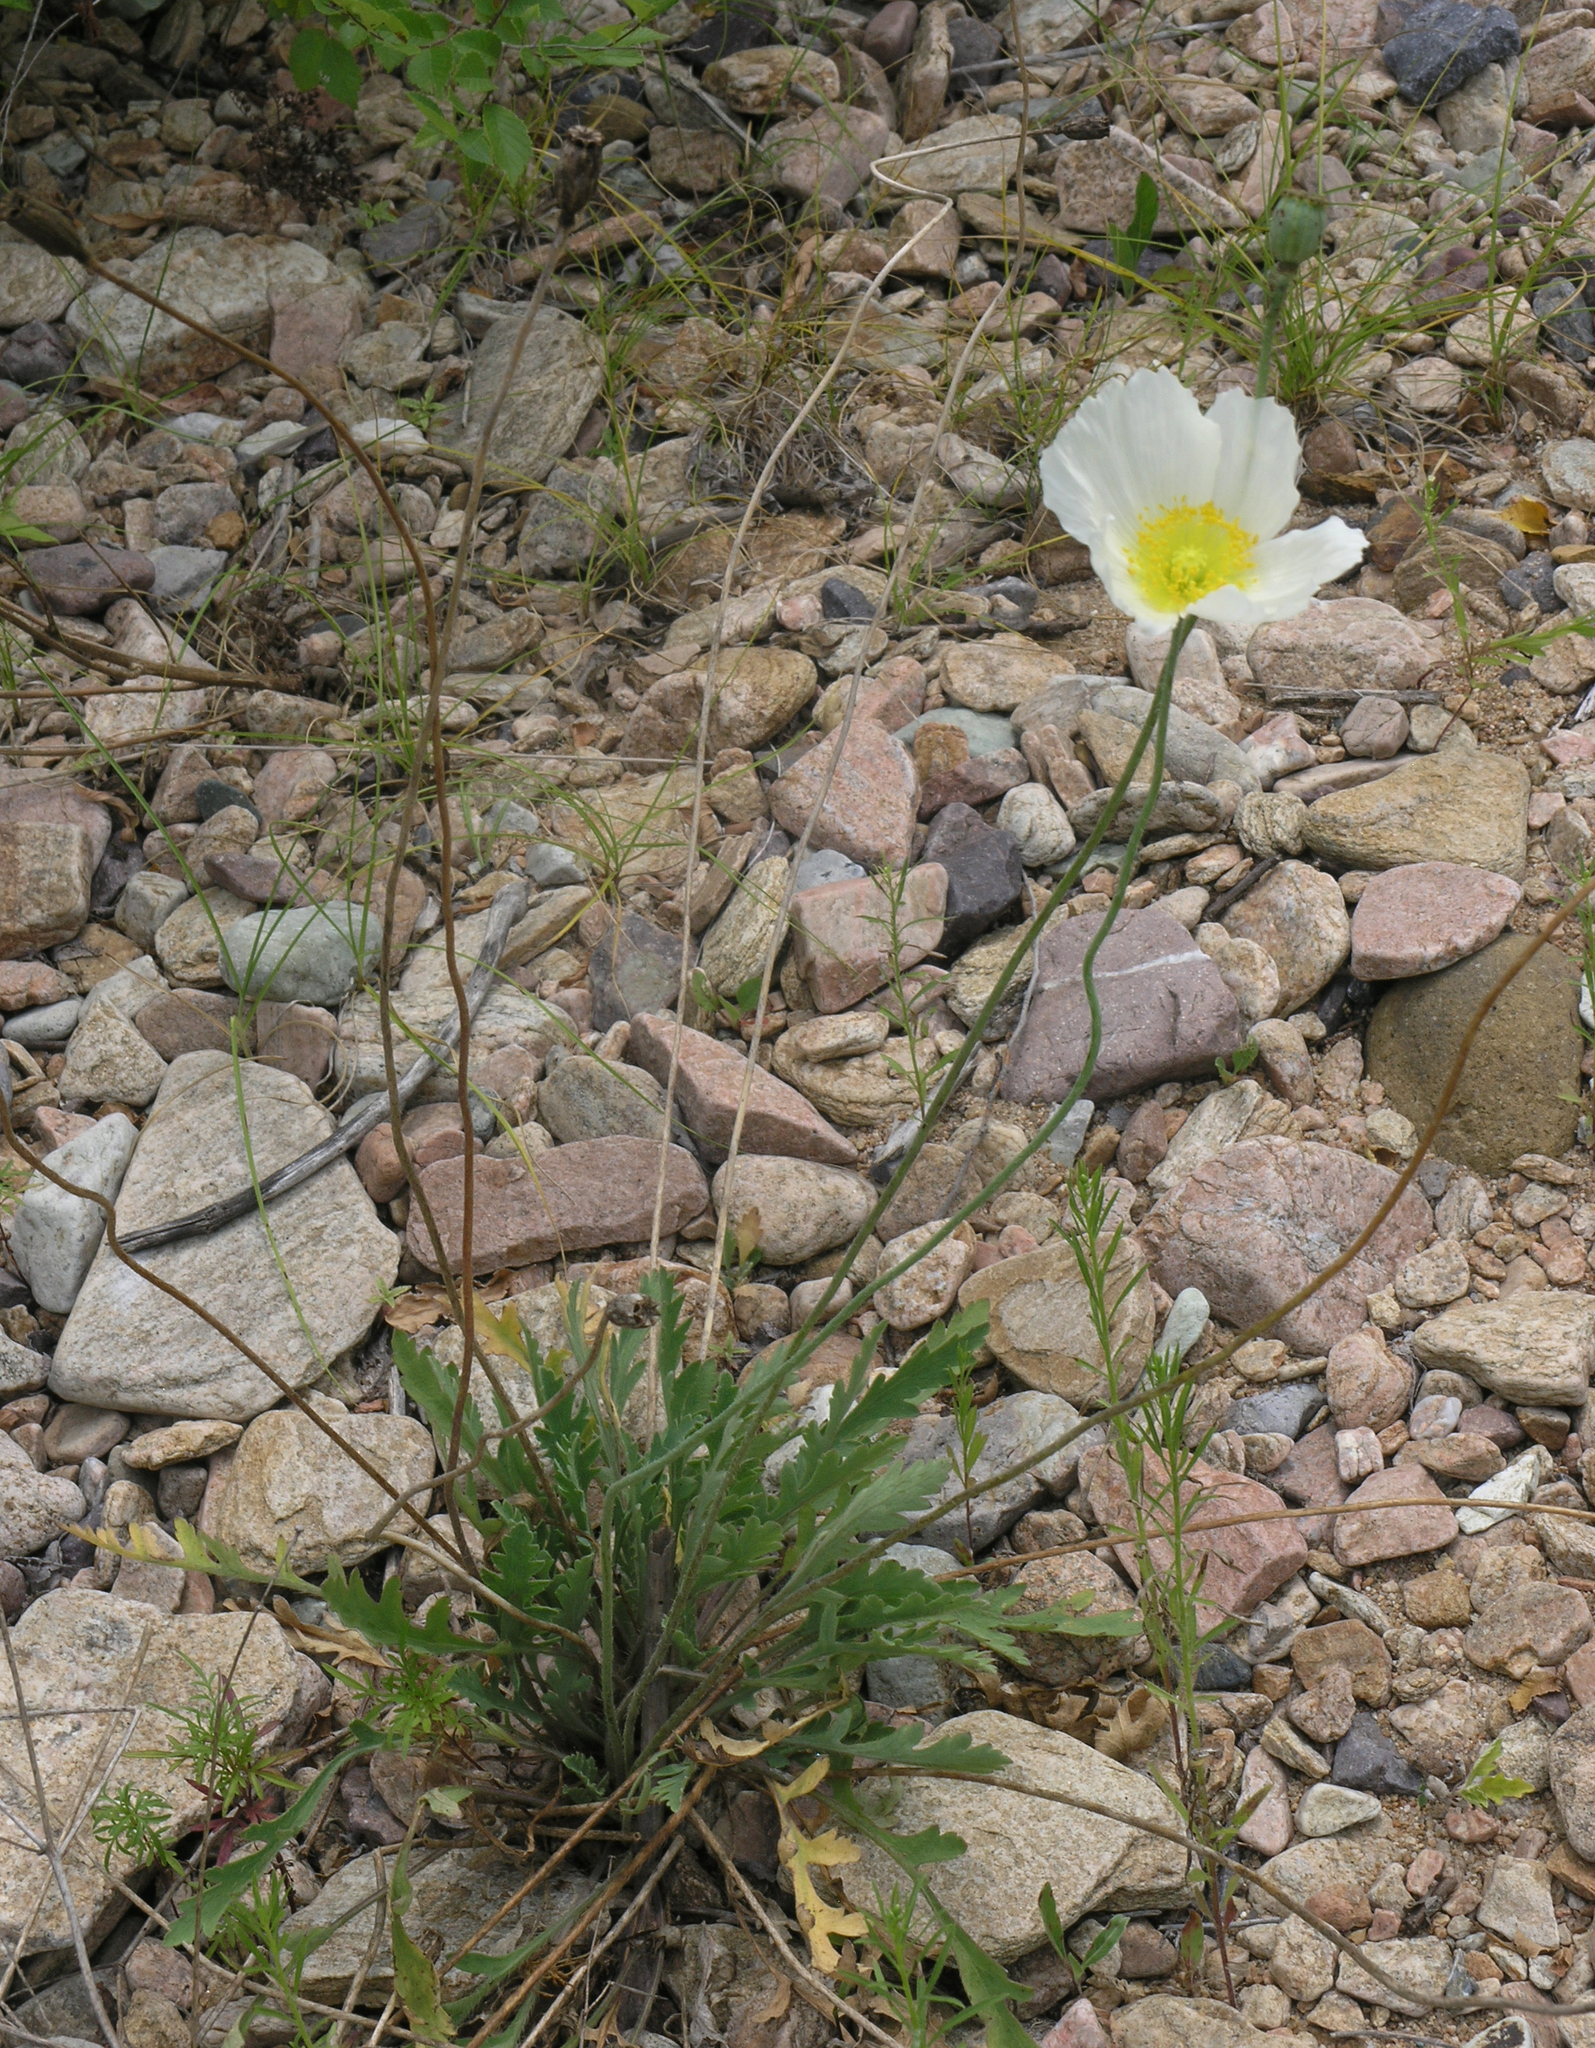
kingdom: Plantae
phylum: Tracheophyta
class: Magnoliopsida
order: Ranunculales
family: Papaveraceae
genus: Papaver
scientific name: Papaver croceum
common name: Siberian poppy
